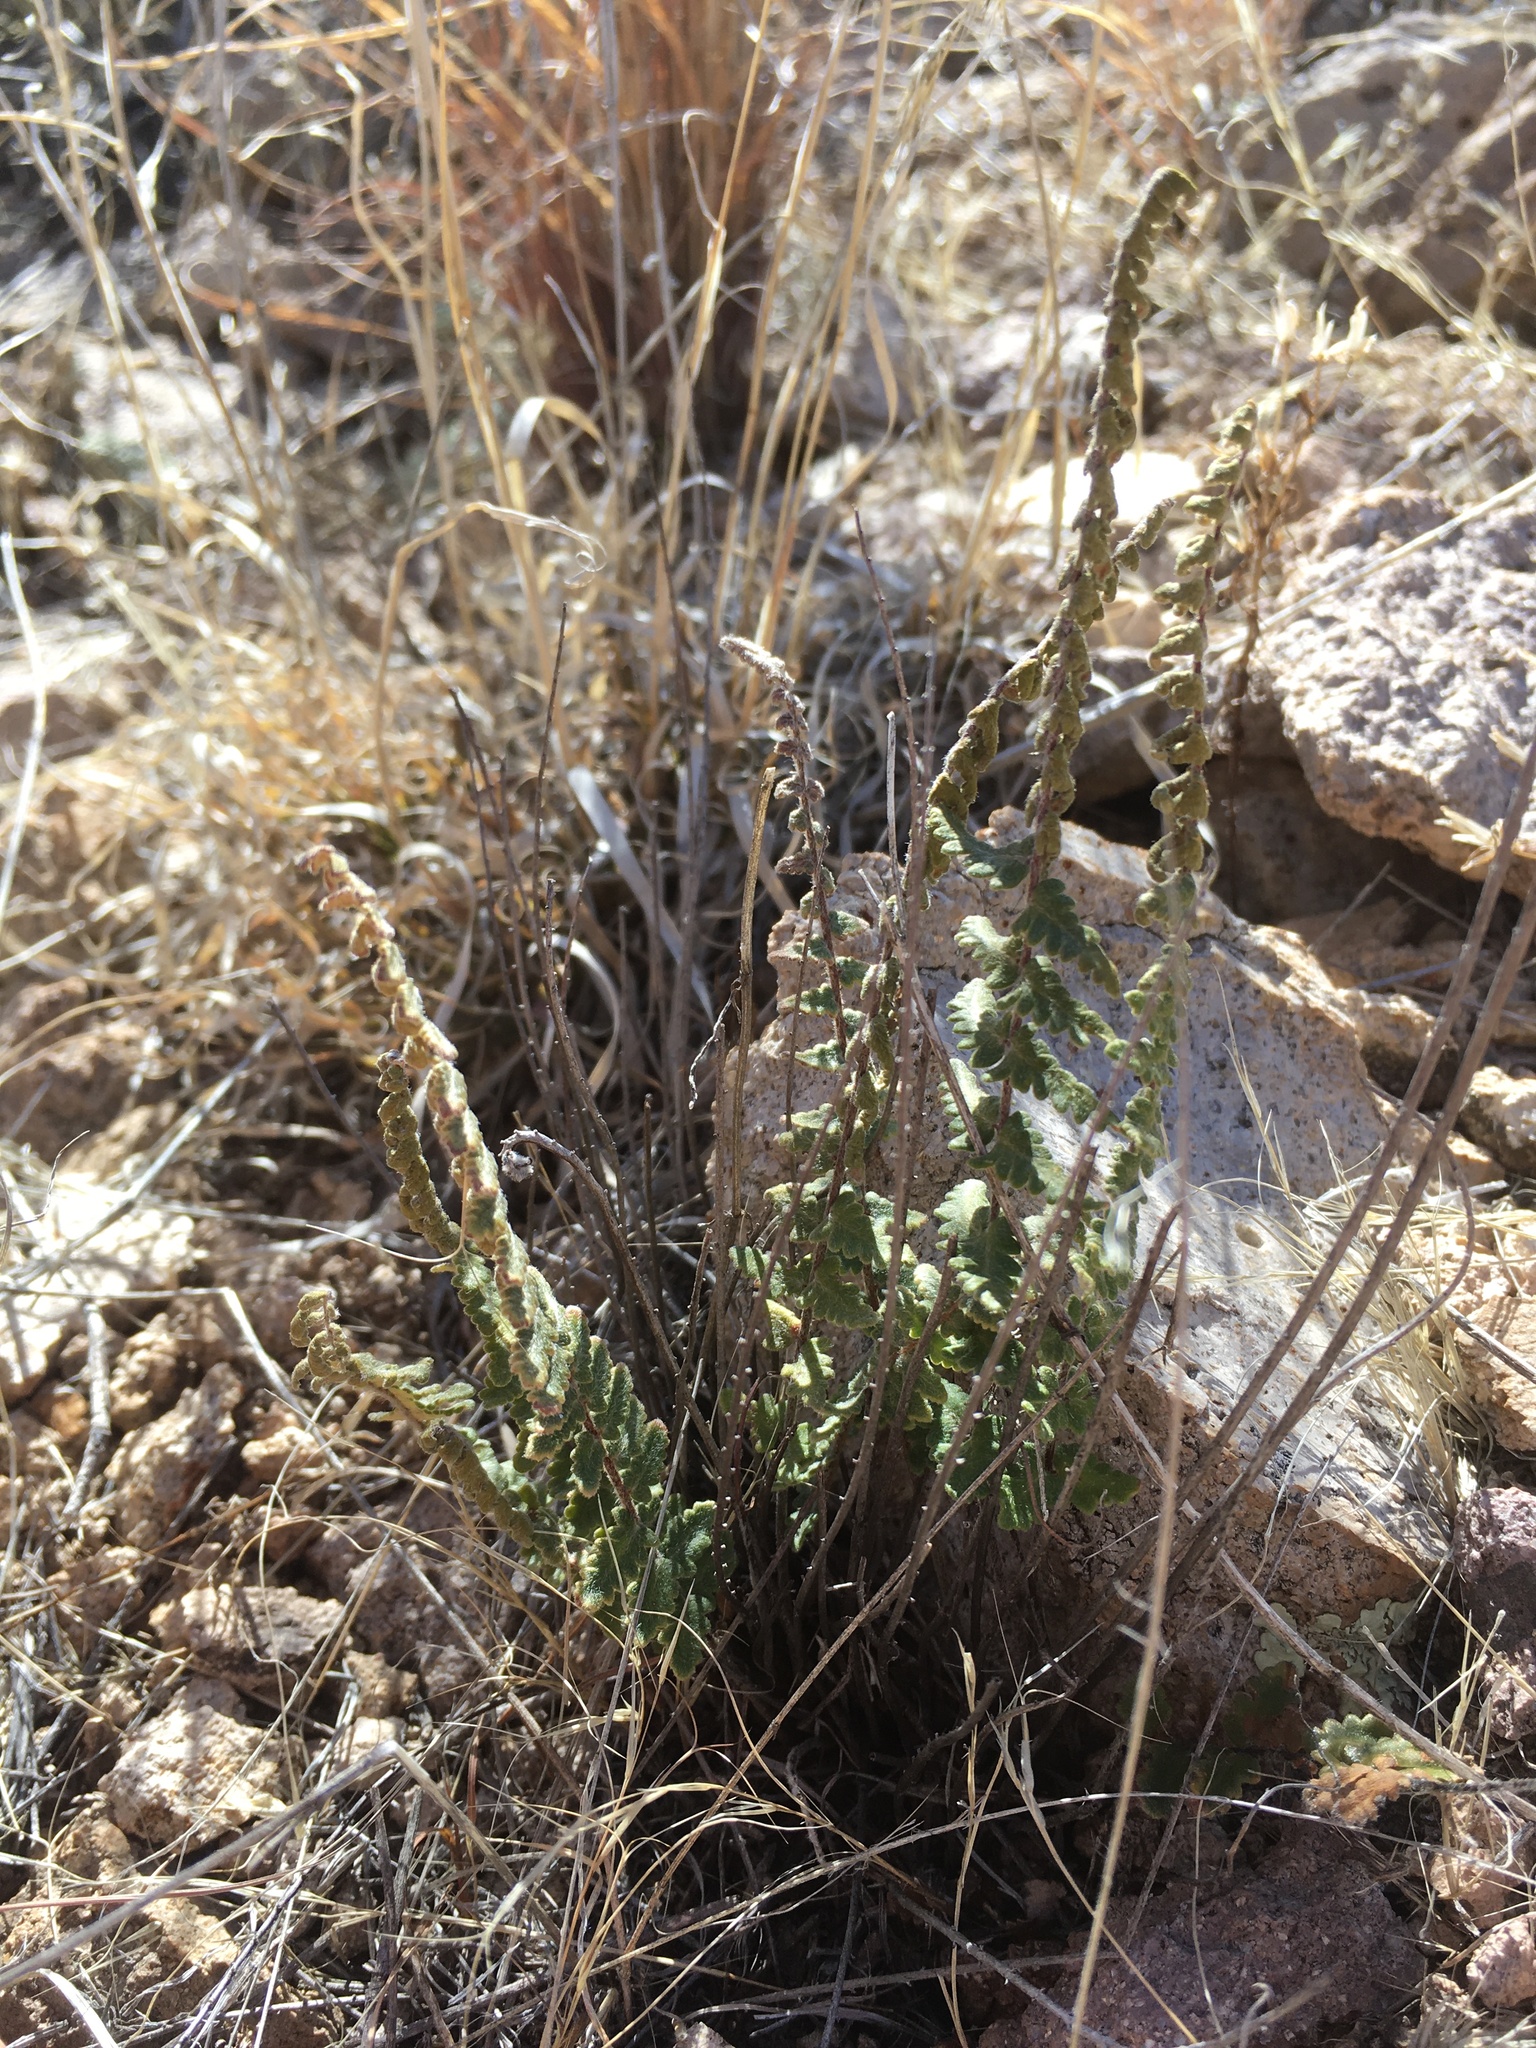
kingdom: Plantae
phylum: Tracheophyta
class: Polypodiopsida
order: Polypodiales
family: Pteridaceae
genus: Myriopteris
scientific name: Myriopteris aurea
